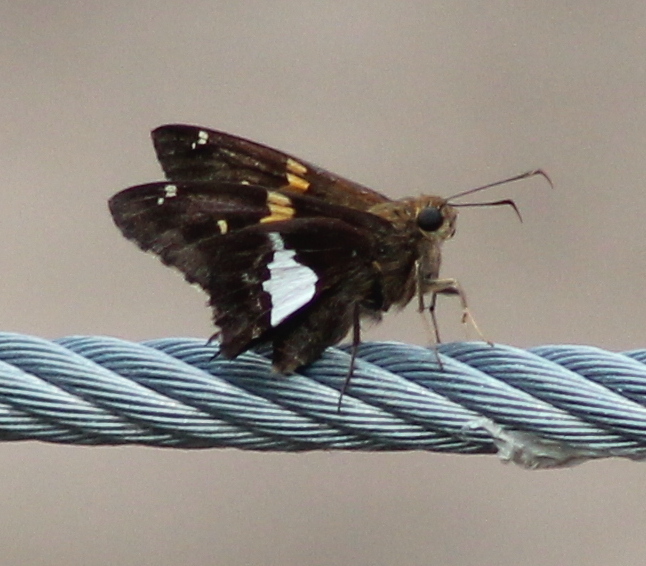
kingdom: Animalia
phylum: Arthropoda
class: Insecta
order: Lepidoptera
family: Hesperiidae
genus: Epargyreus
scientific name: Epargyreus clarus
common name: Silver-spotted skipper
